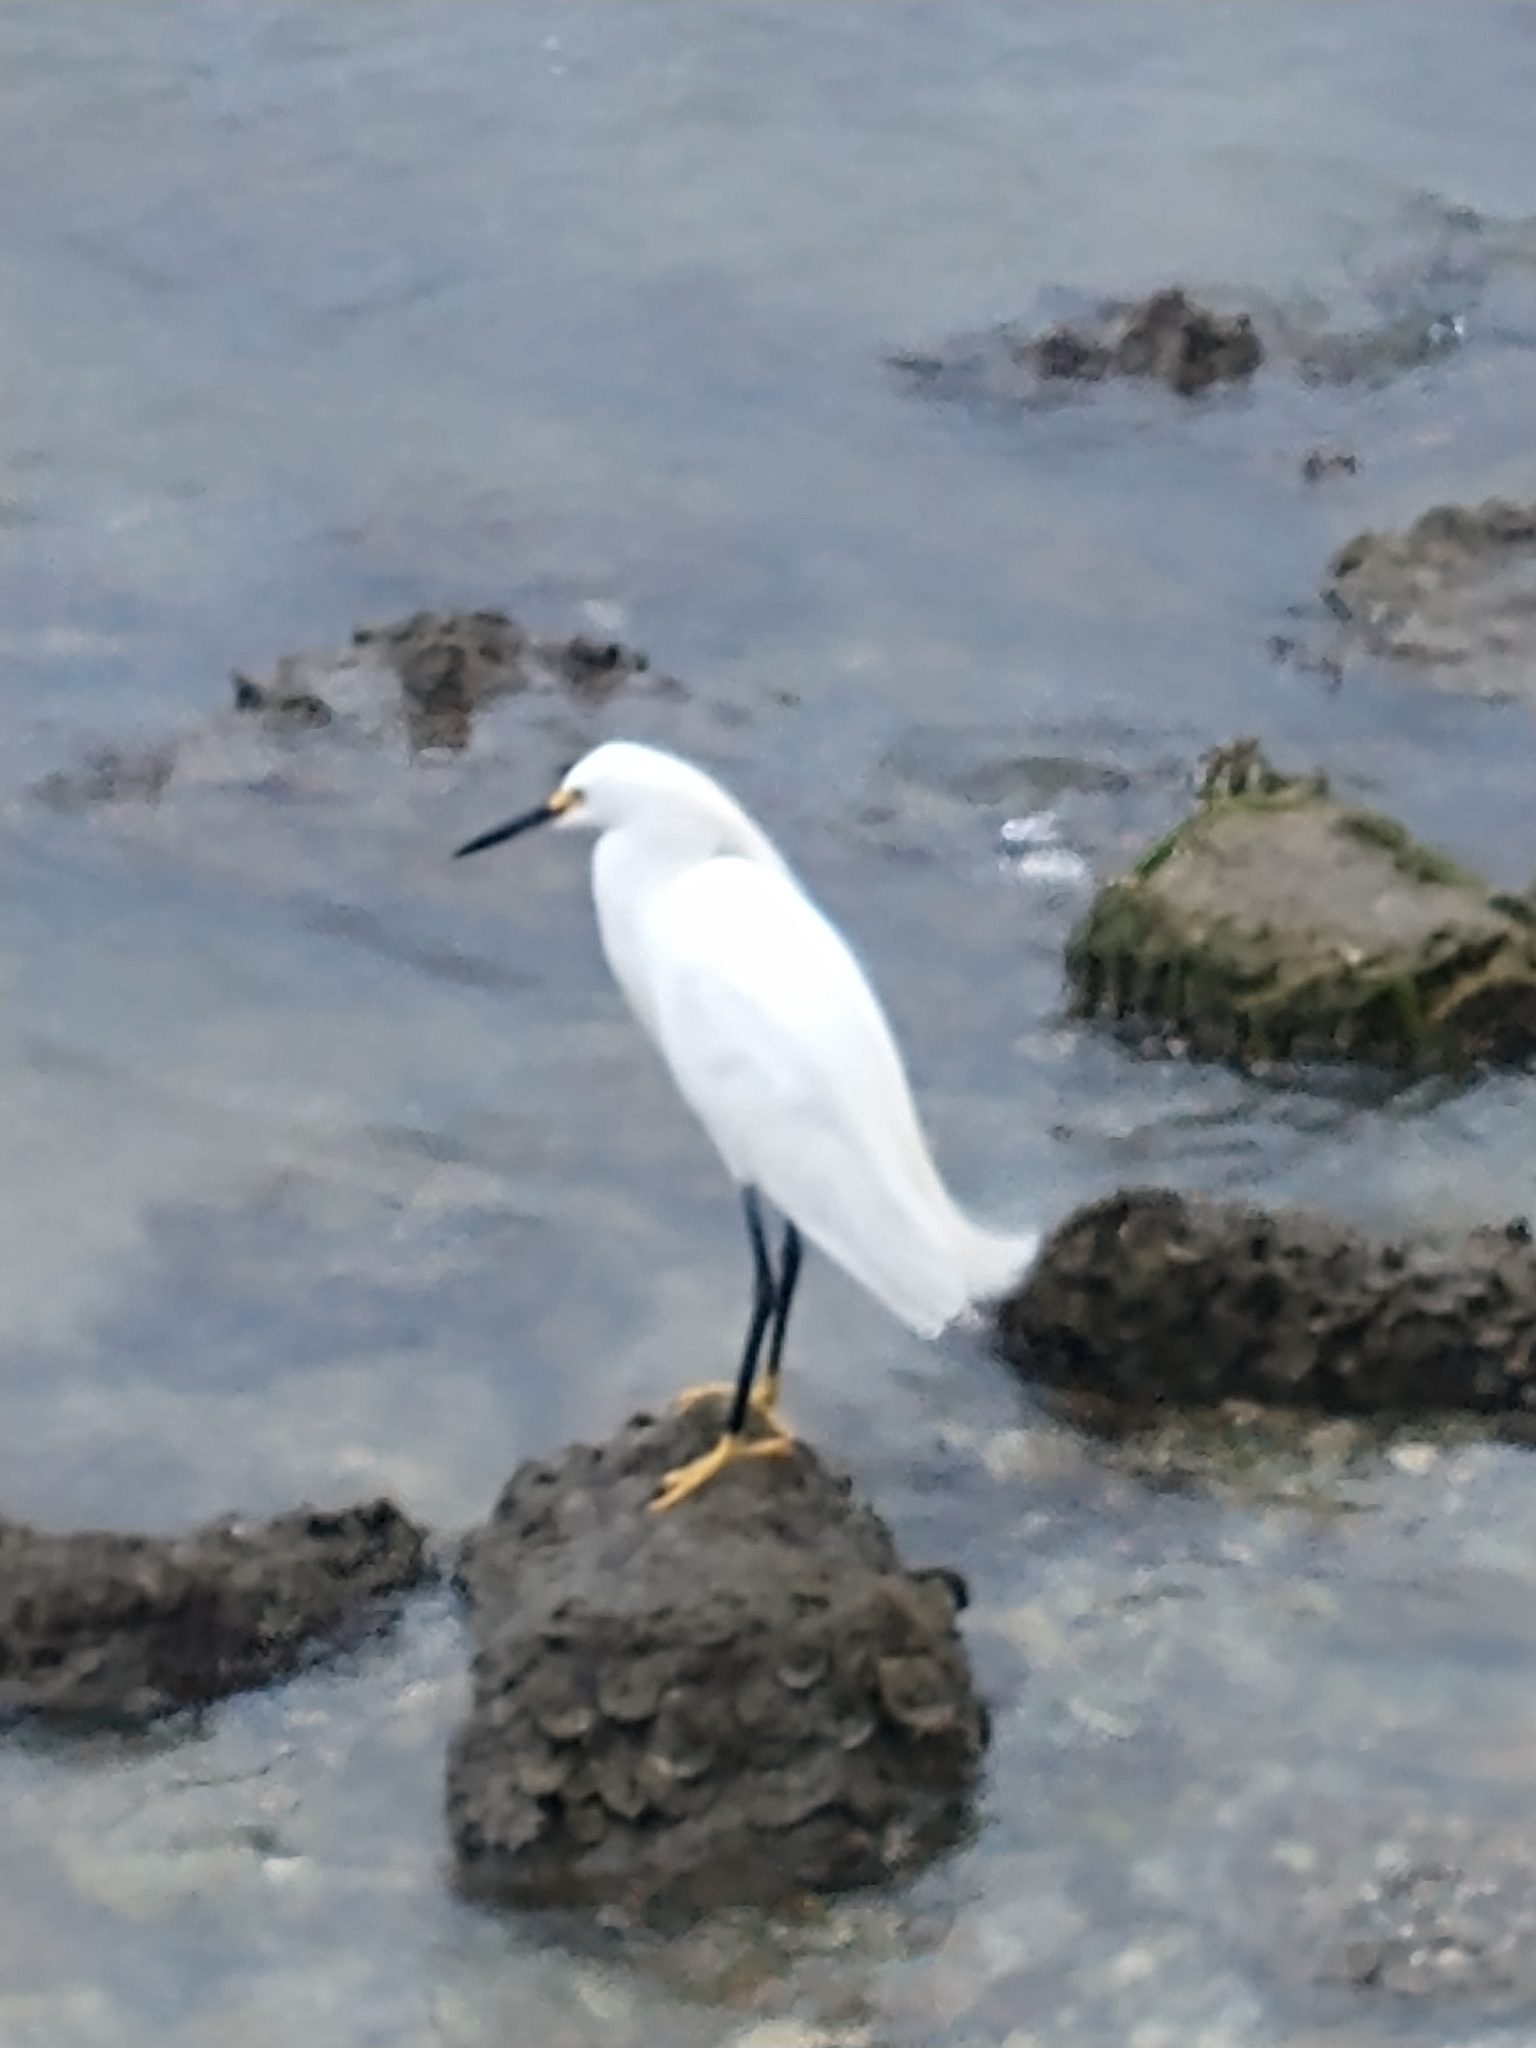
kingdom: Animalia
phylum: Chordata
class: Aves
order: Pelecaniformes
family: Ardeidae
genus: Egretta
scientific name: Egretta thula
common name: Snowy egret
